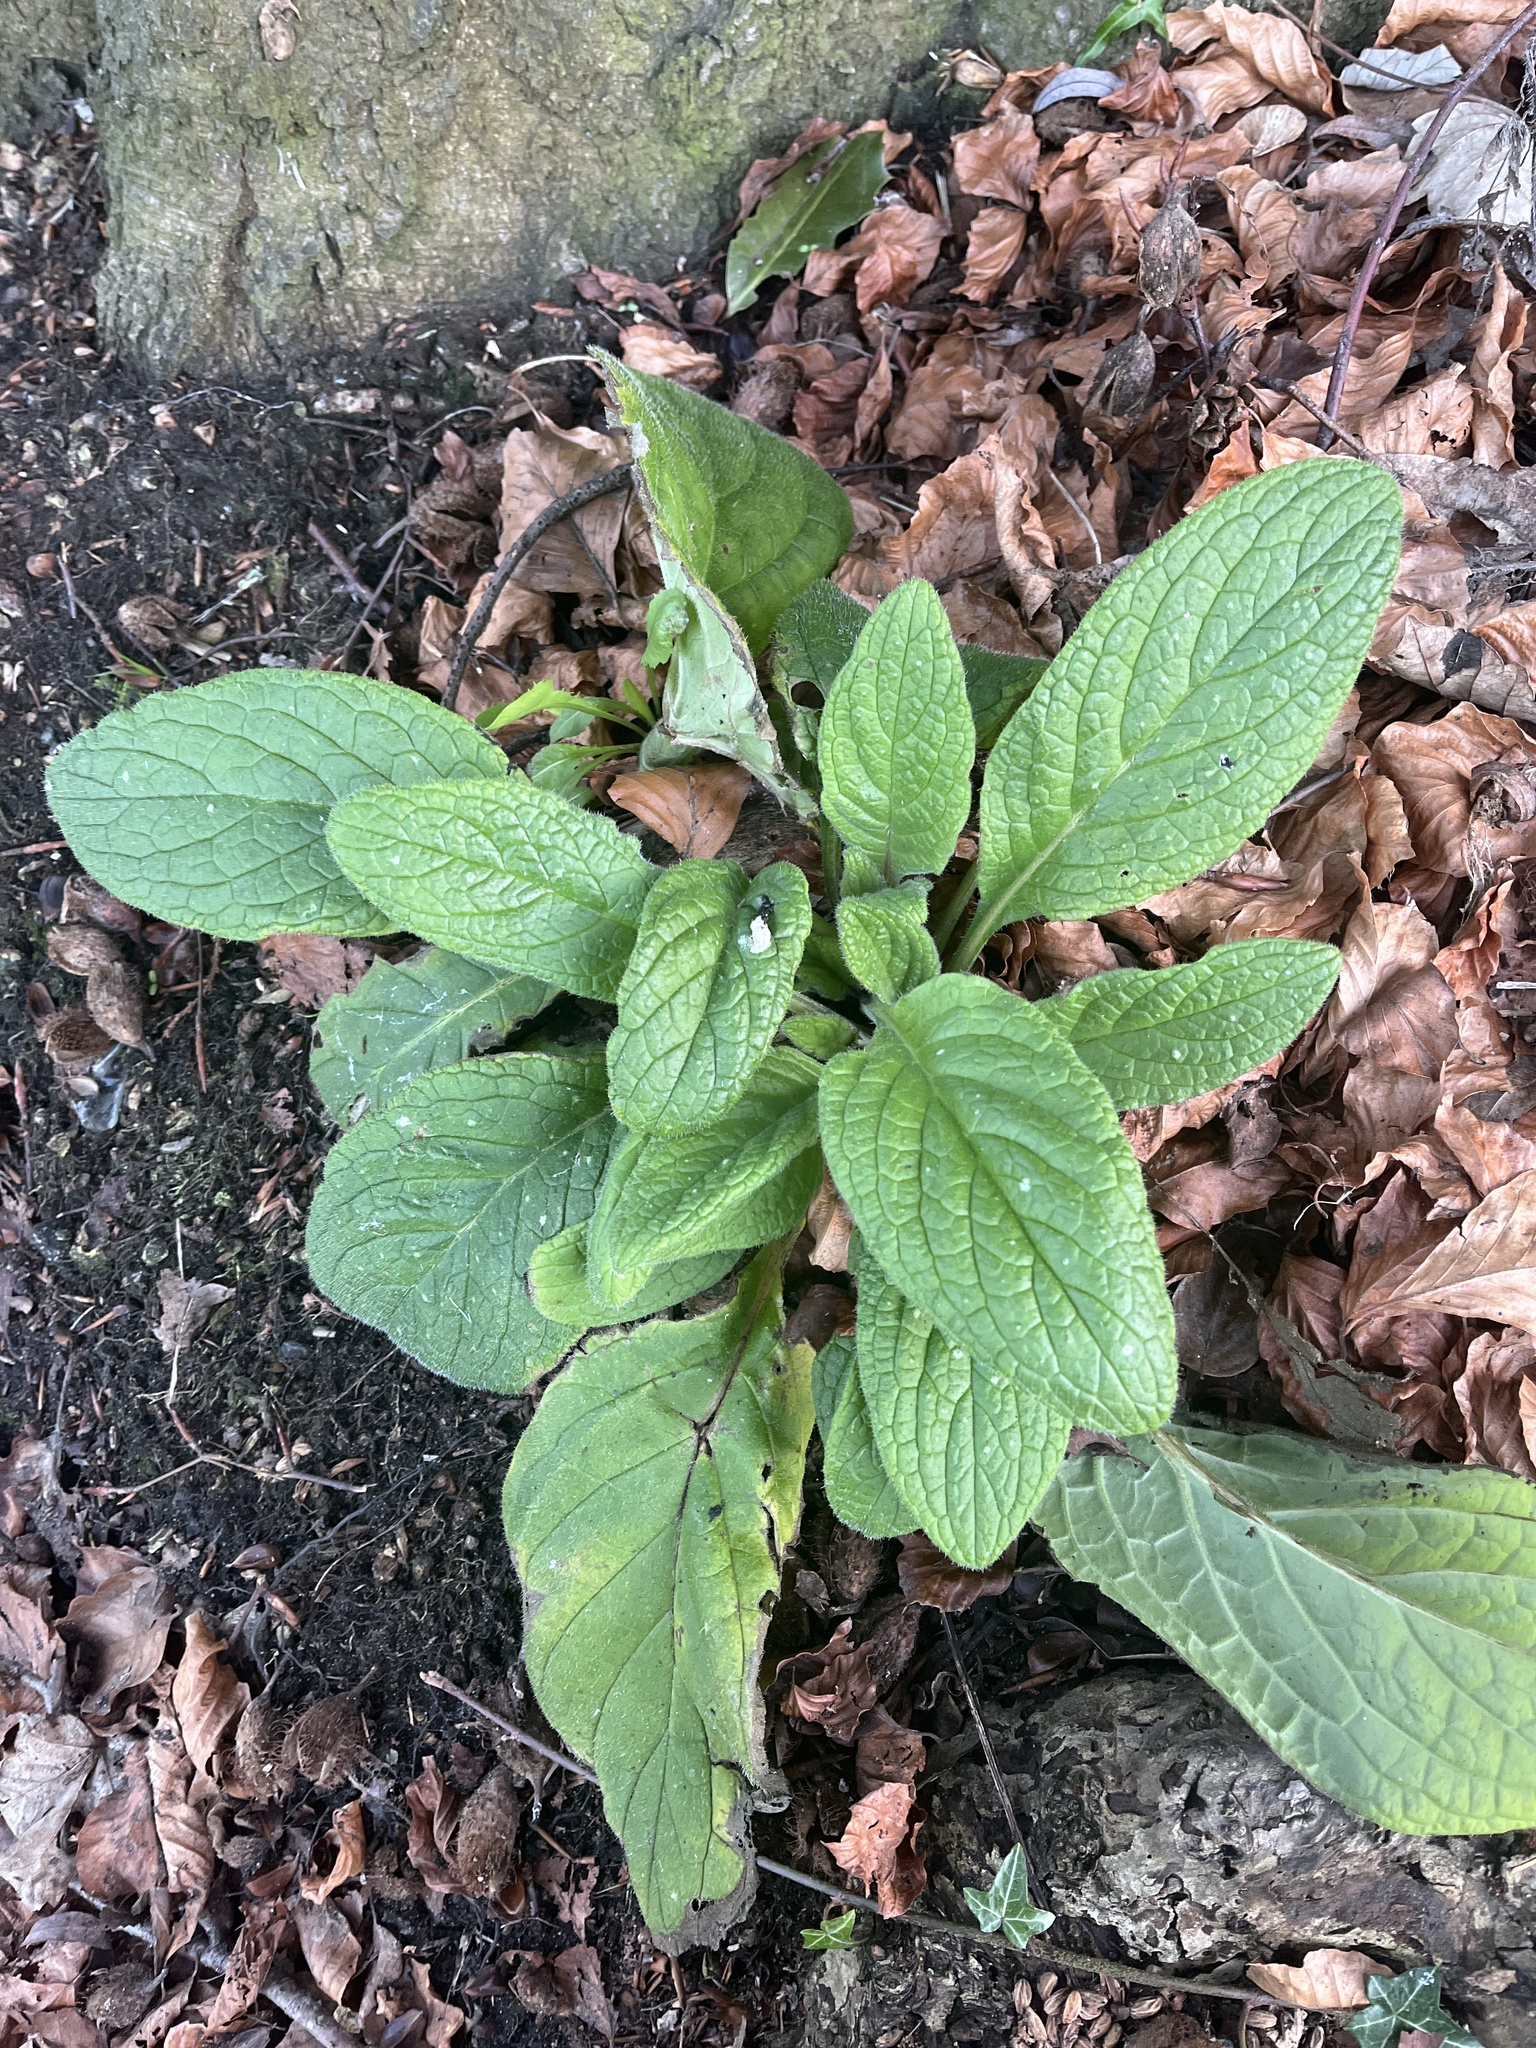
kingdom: Plantae
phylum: Tracheophyta
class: Magnoliopsida
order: Boraginales
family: Boraginaceae
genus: Pentaglottis
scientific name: Pentaglottis sempervirens
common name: Green alkanet
